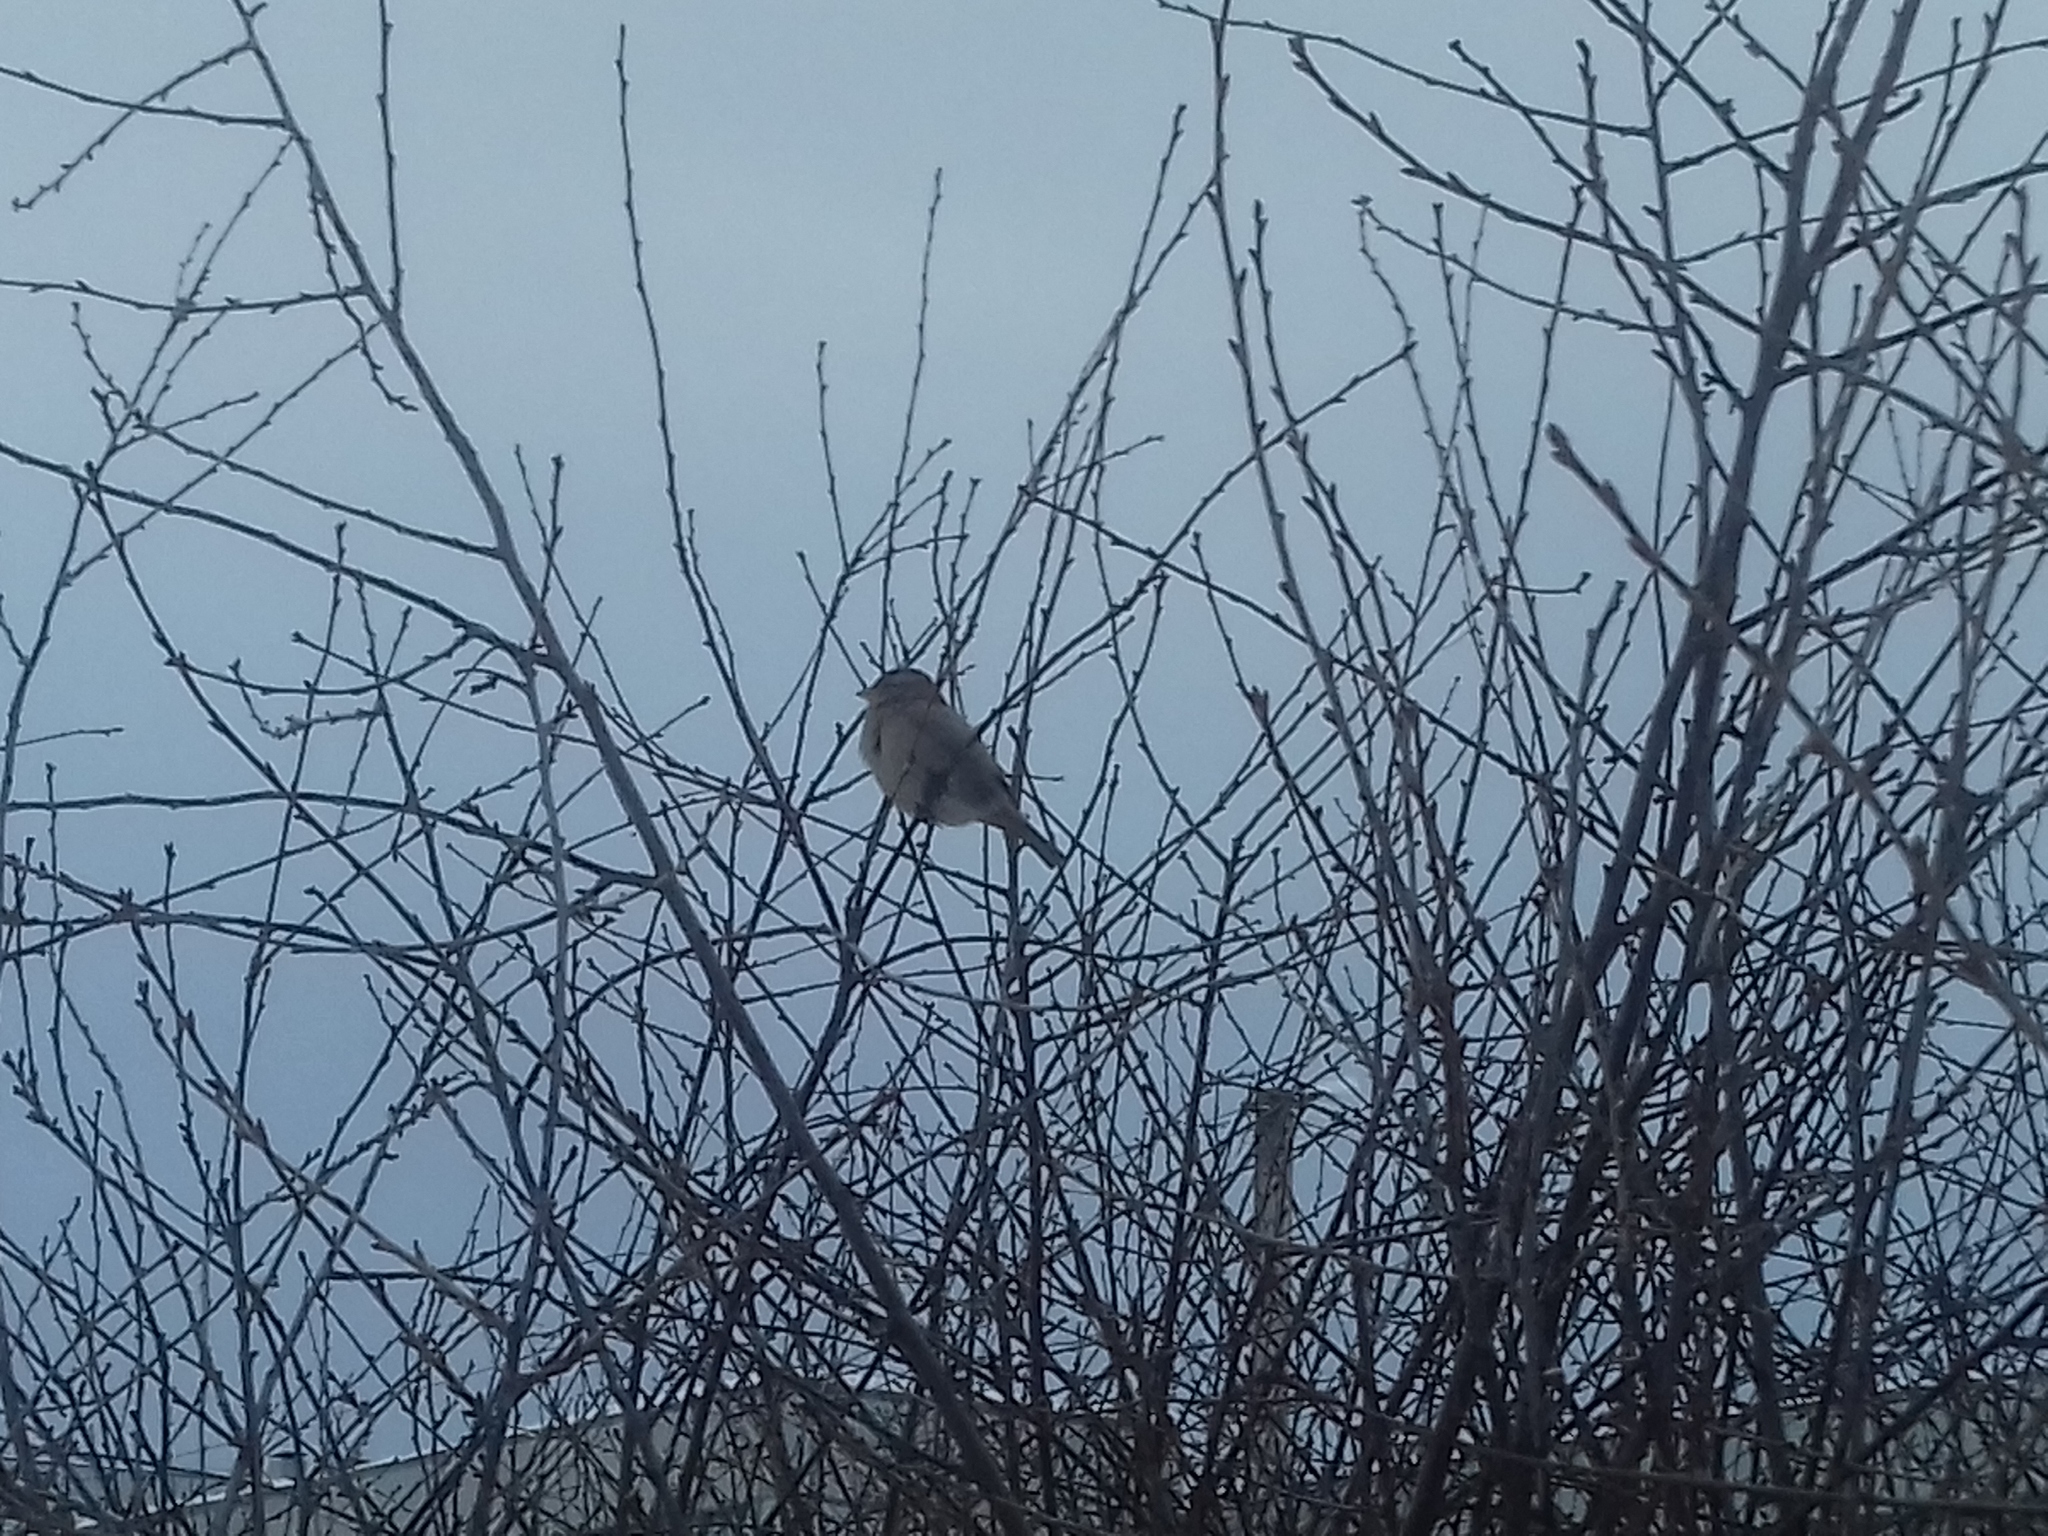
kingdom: Animalia
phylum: Chordata
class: Aves
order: Passeriformes
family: Passeridae
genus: Passer
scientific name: Passer domesticus
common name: House sparrow
